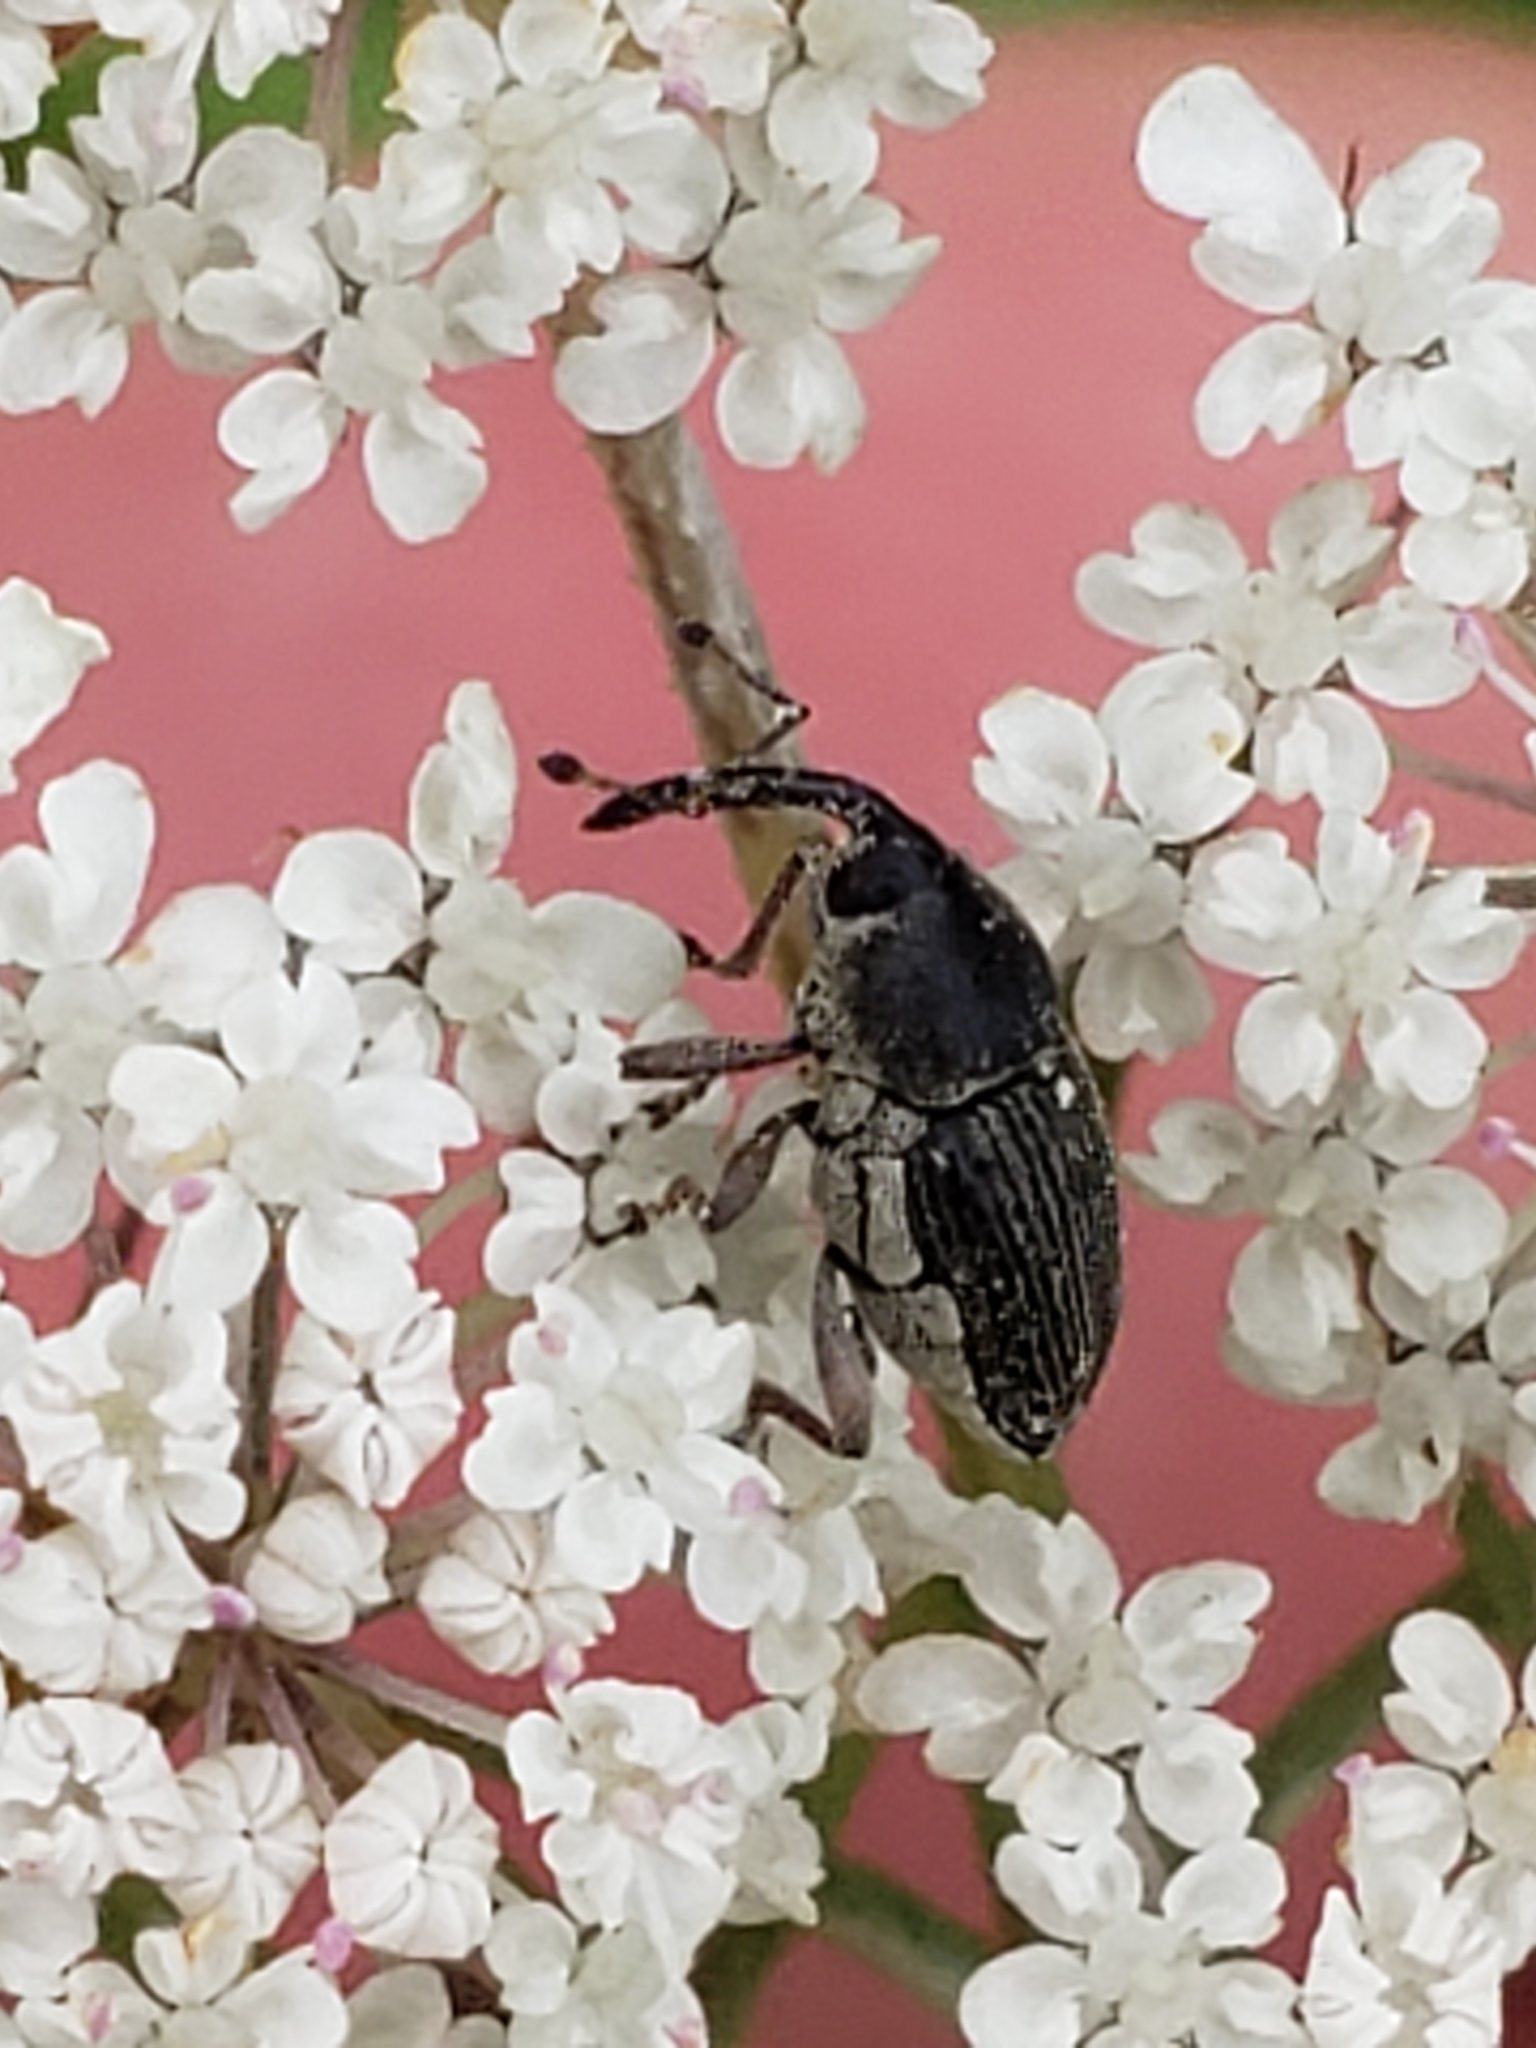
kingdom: Animalia
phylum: Arthropoda
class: Insecta
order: Coleoptera
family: Curculionidae
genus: Odontocorynus
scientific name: Odontocorynus umbellae
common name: Daisy flower weevil
